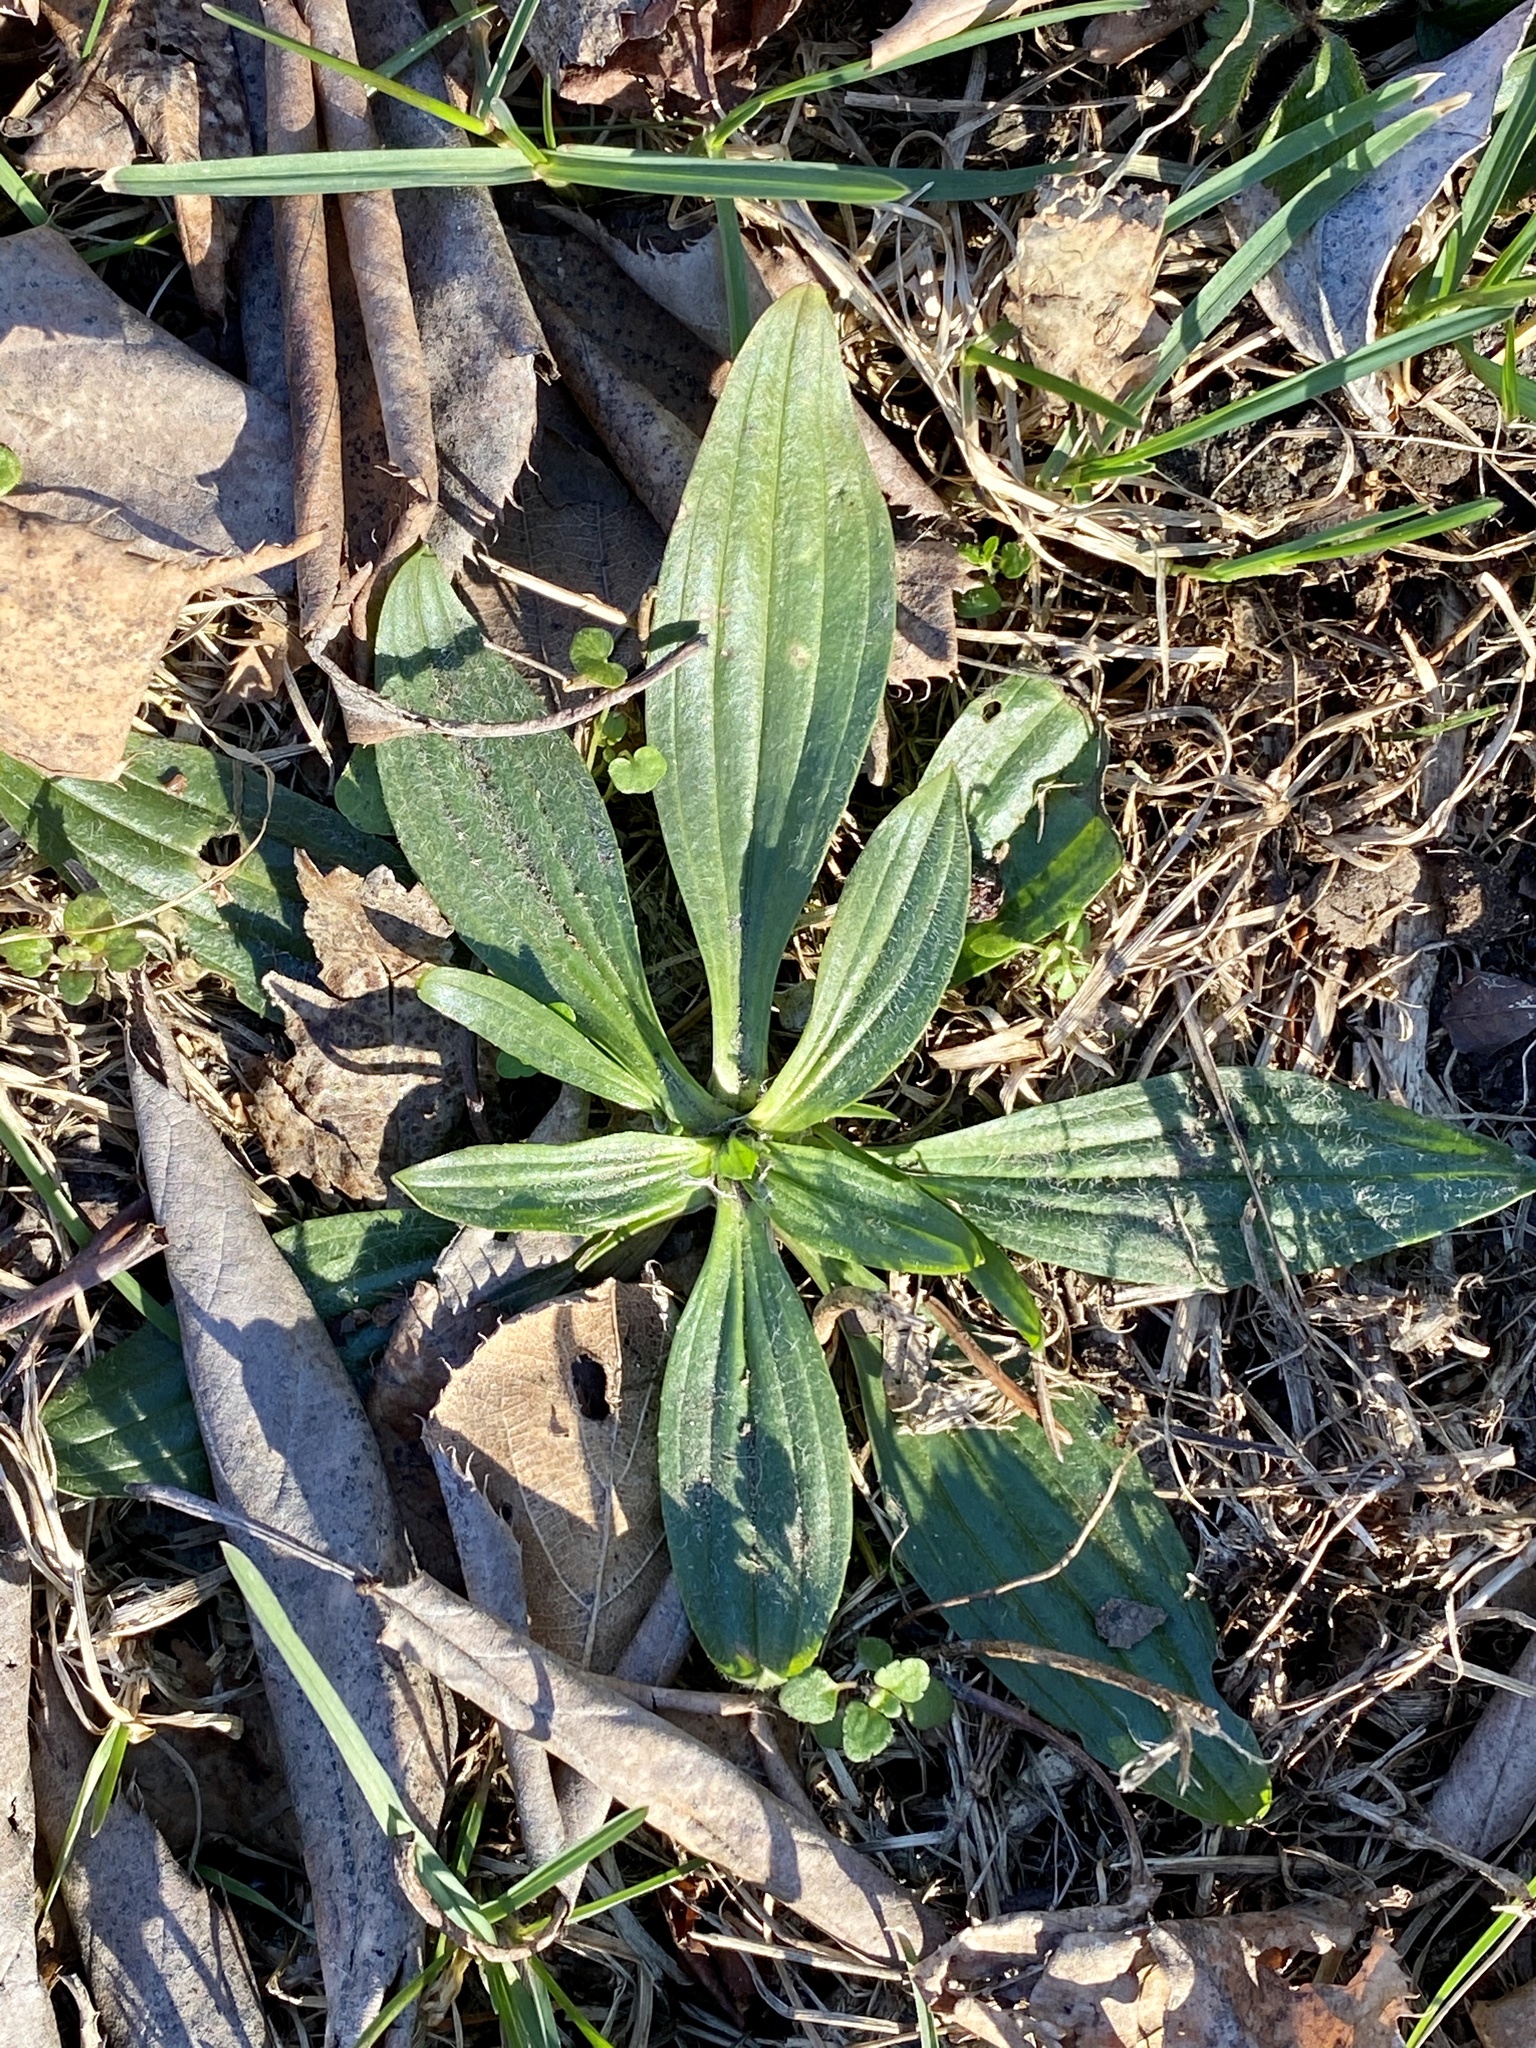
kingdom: Plantae
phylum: Tracheophyta
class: Magnoliopsida
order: Lamiales
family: Plantaginaceae
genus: Plantago
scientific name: Plantago lanceolata
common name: Ribwort plantain
